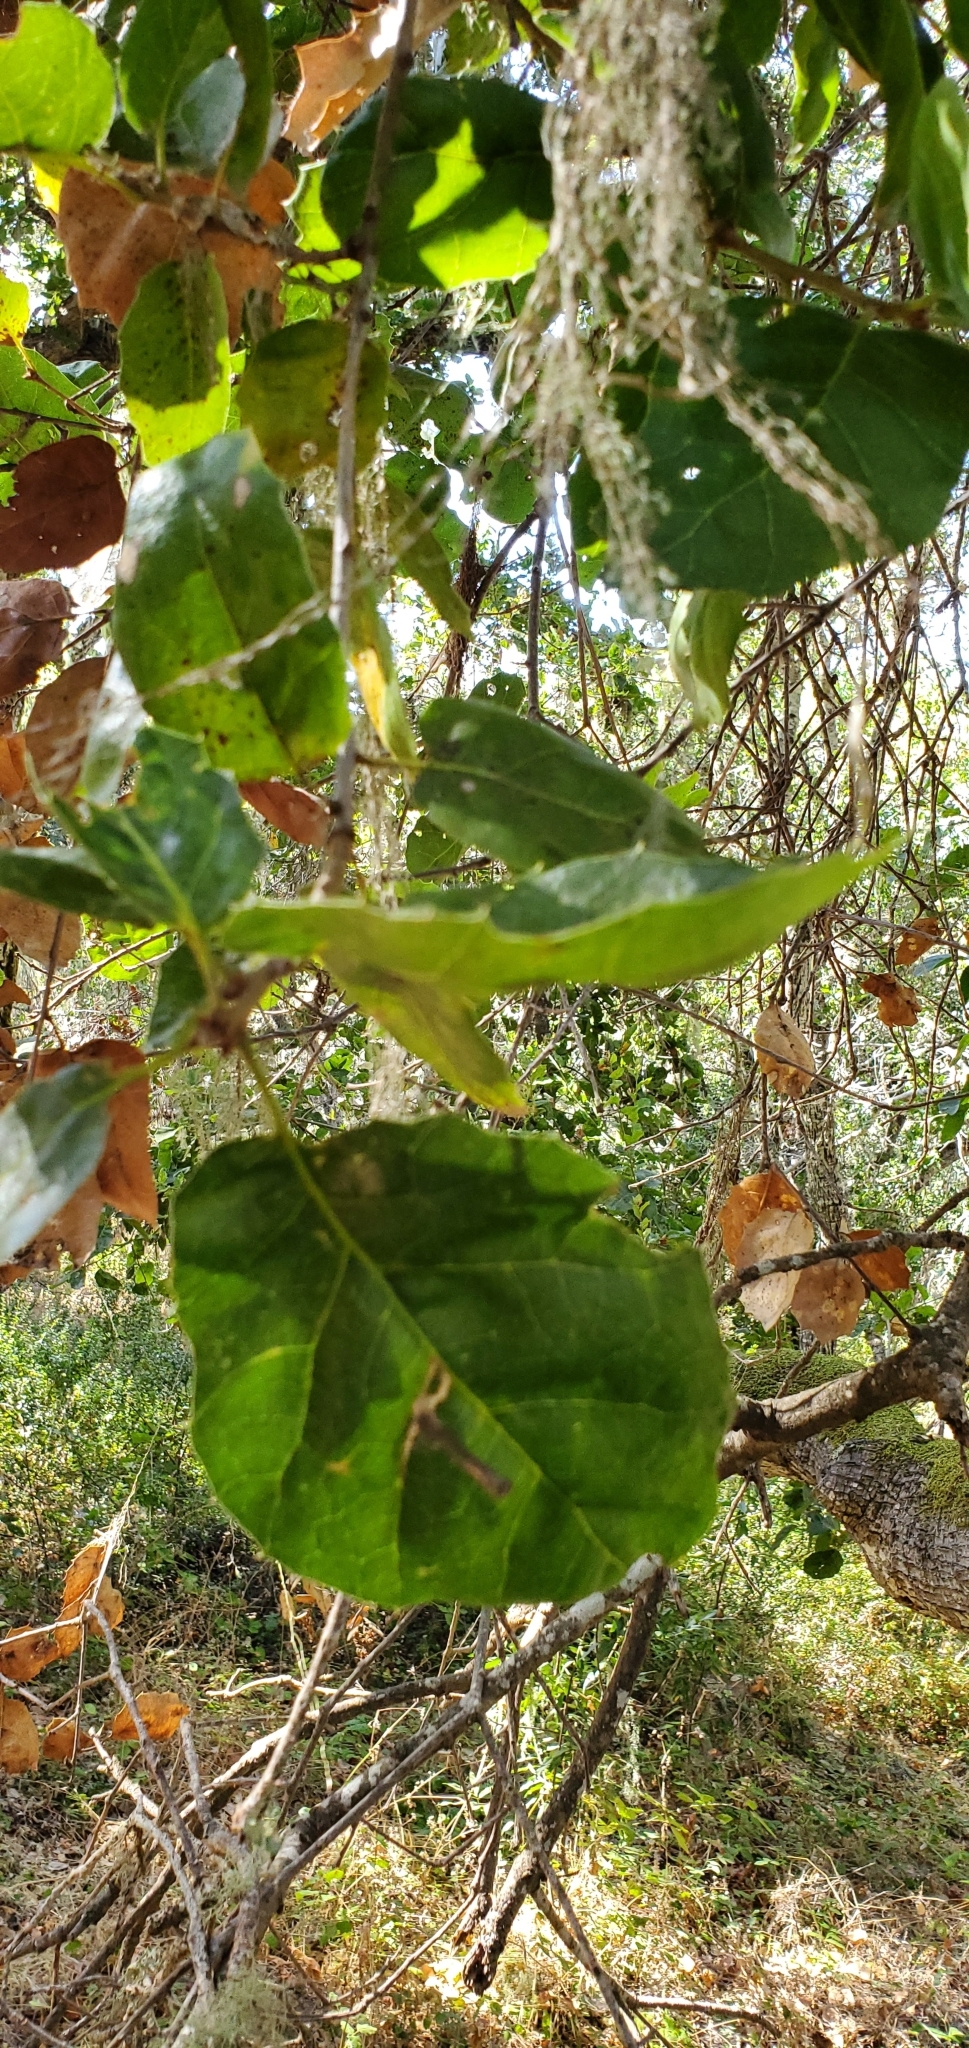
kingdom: Plantae
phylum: Tracheophyta
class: Magnoliopsida
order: Fagales
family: Fagaceae
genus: Quercus
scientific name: Quercus agrifolia
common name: California live oak
